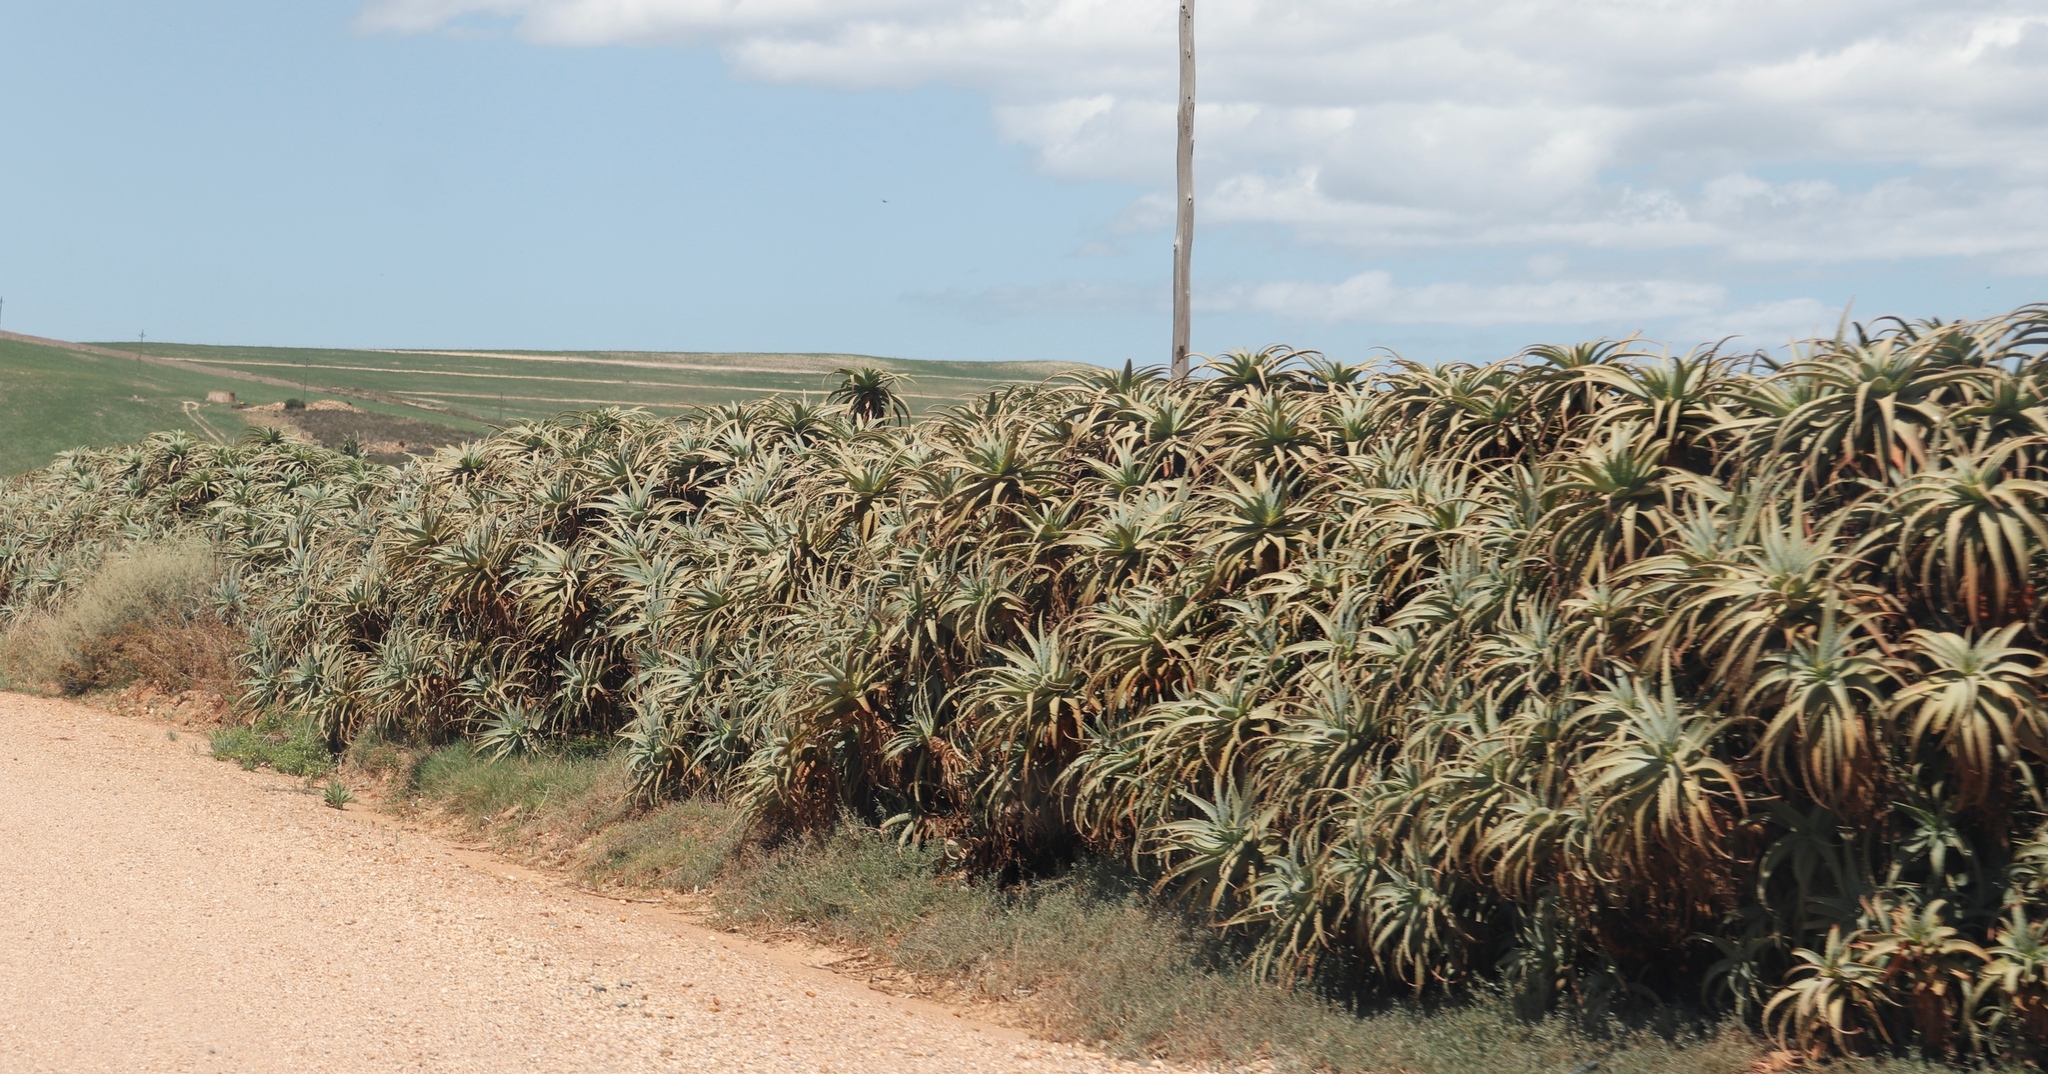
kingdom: Plantae
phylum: Tracheophyta
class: Liliopsida
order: Asparagales
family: Asphodelaceae
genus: Aloe
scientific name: Aloe arborescens
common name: Candelabra aloe
